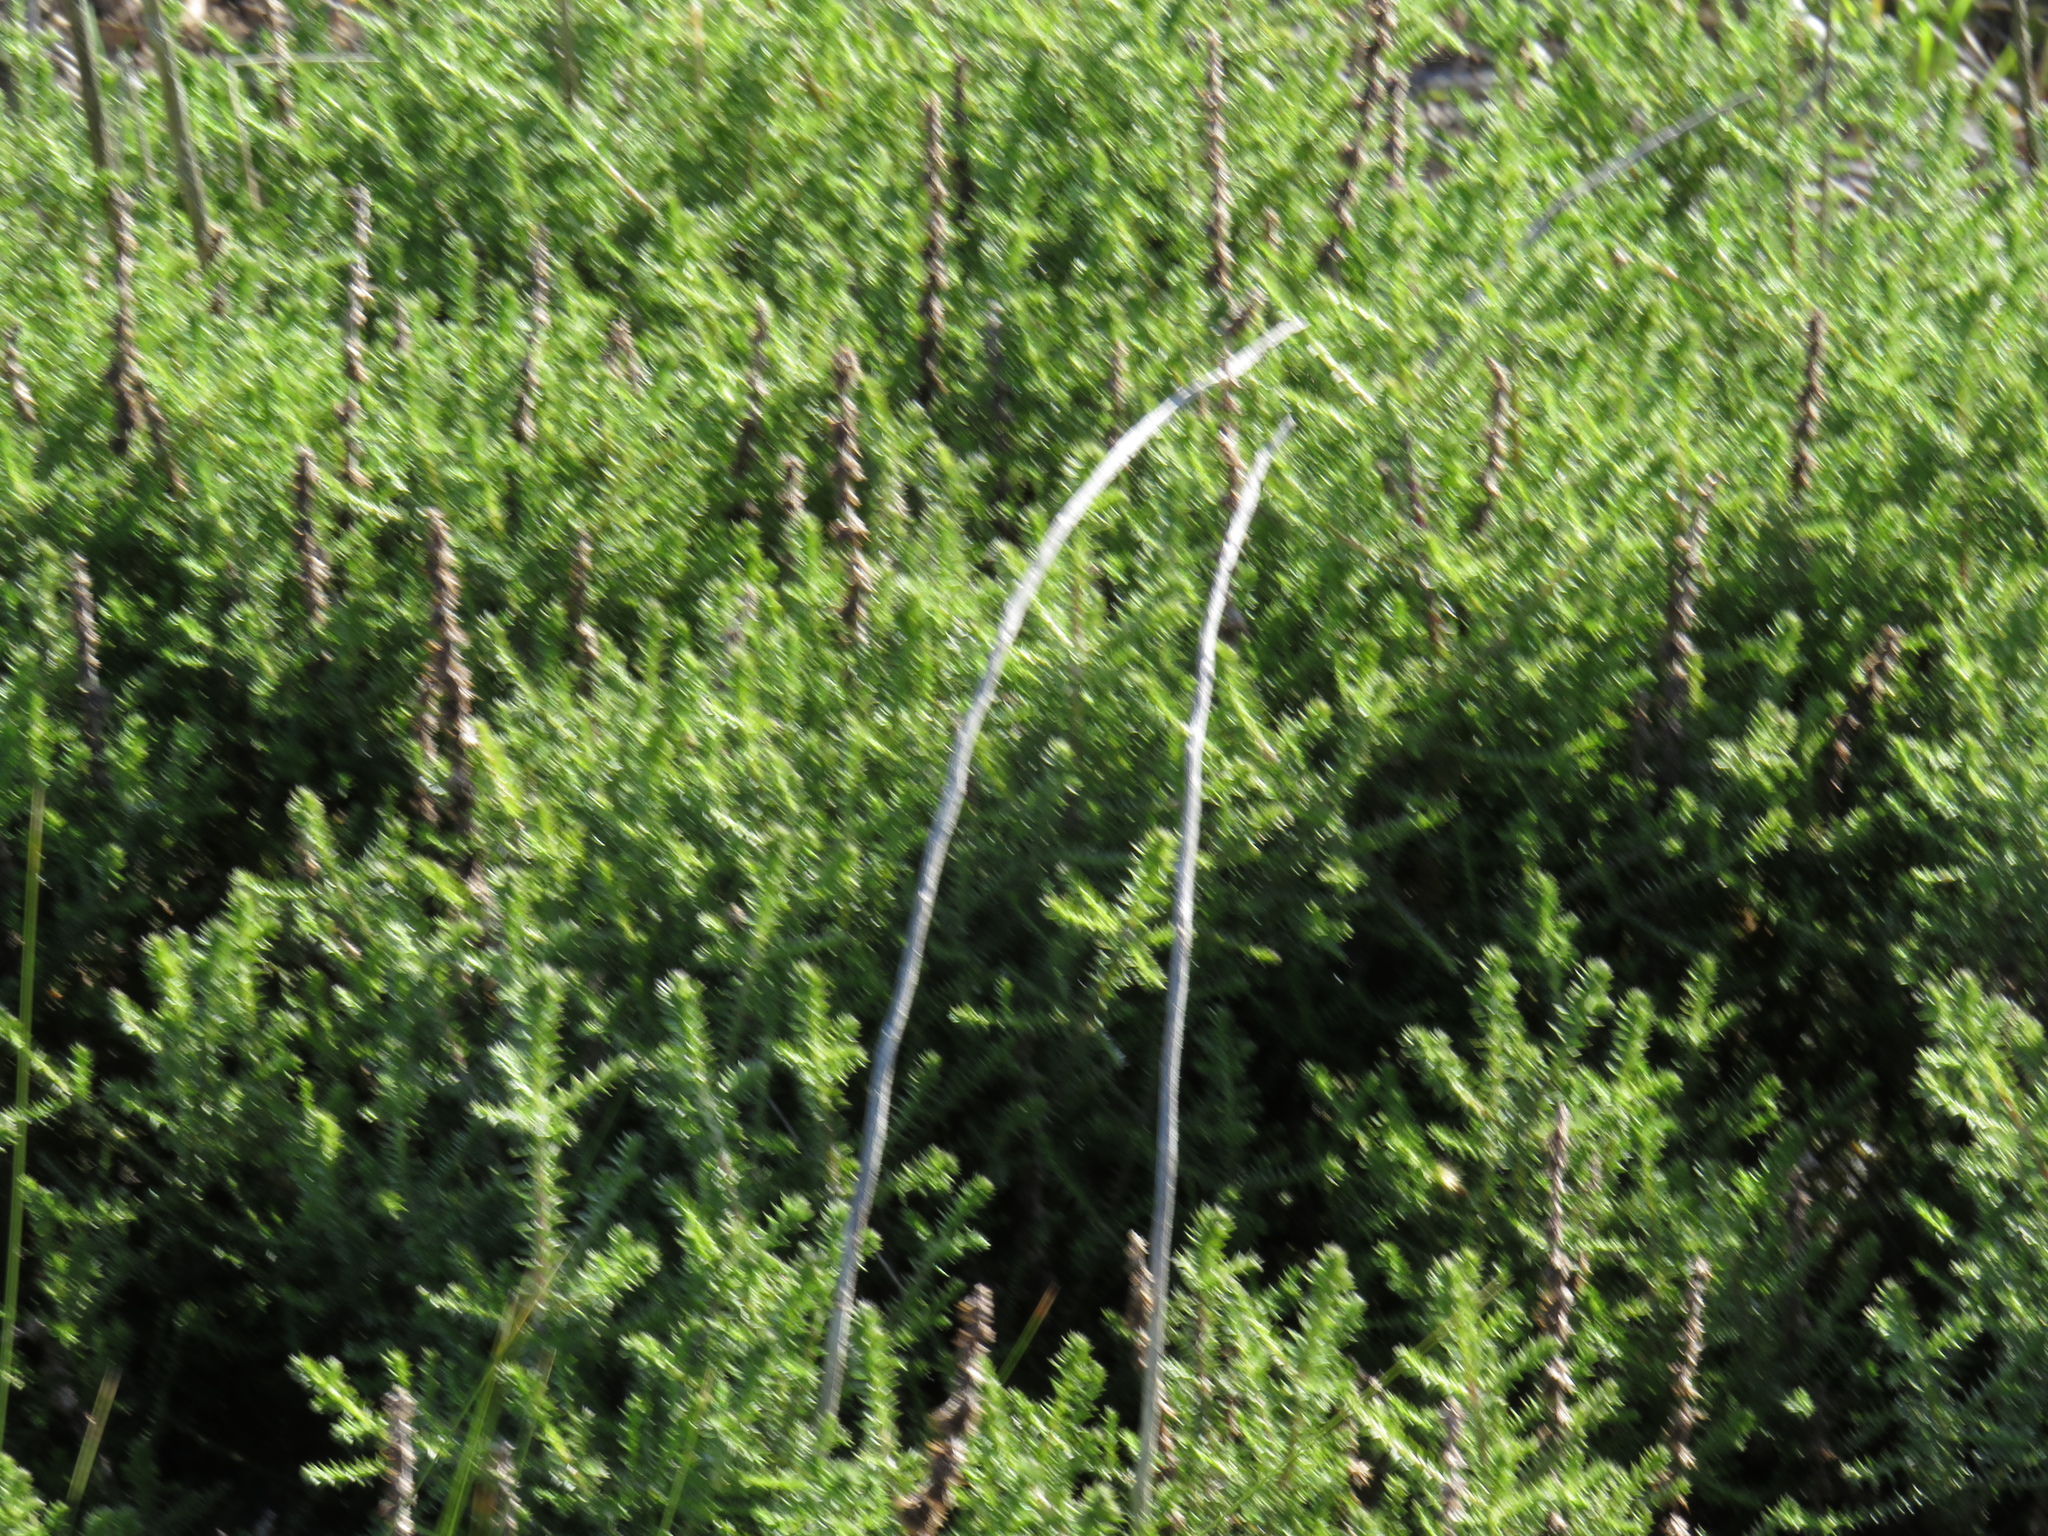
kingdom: Plantae
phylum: Tracheophyta
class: Magnoliopsida
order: Asterales
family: Asteraceae
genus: Seriphium
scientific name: Seriphium cinereum
